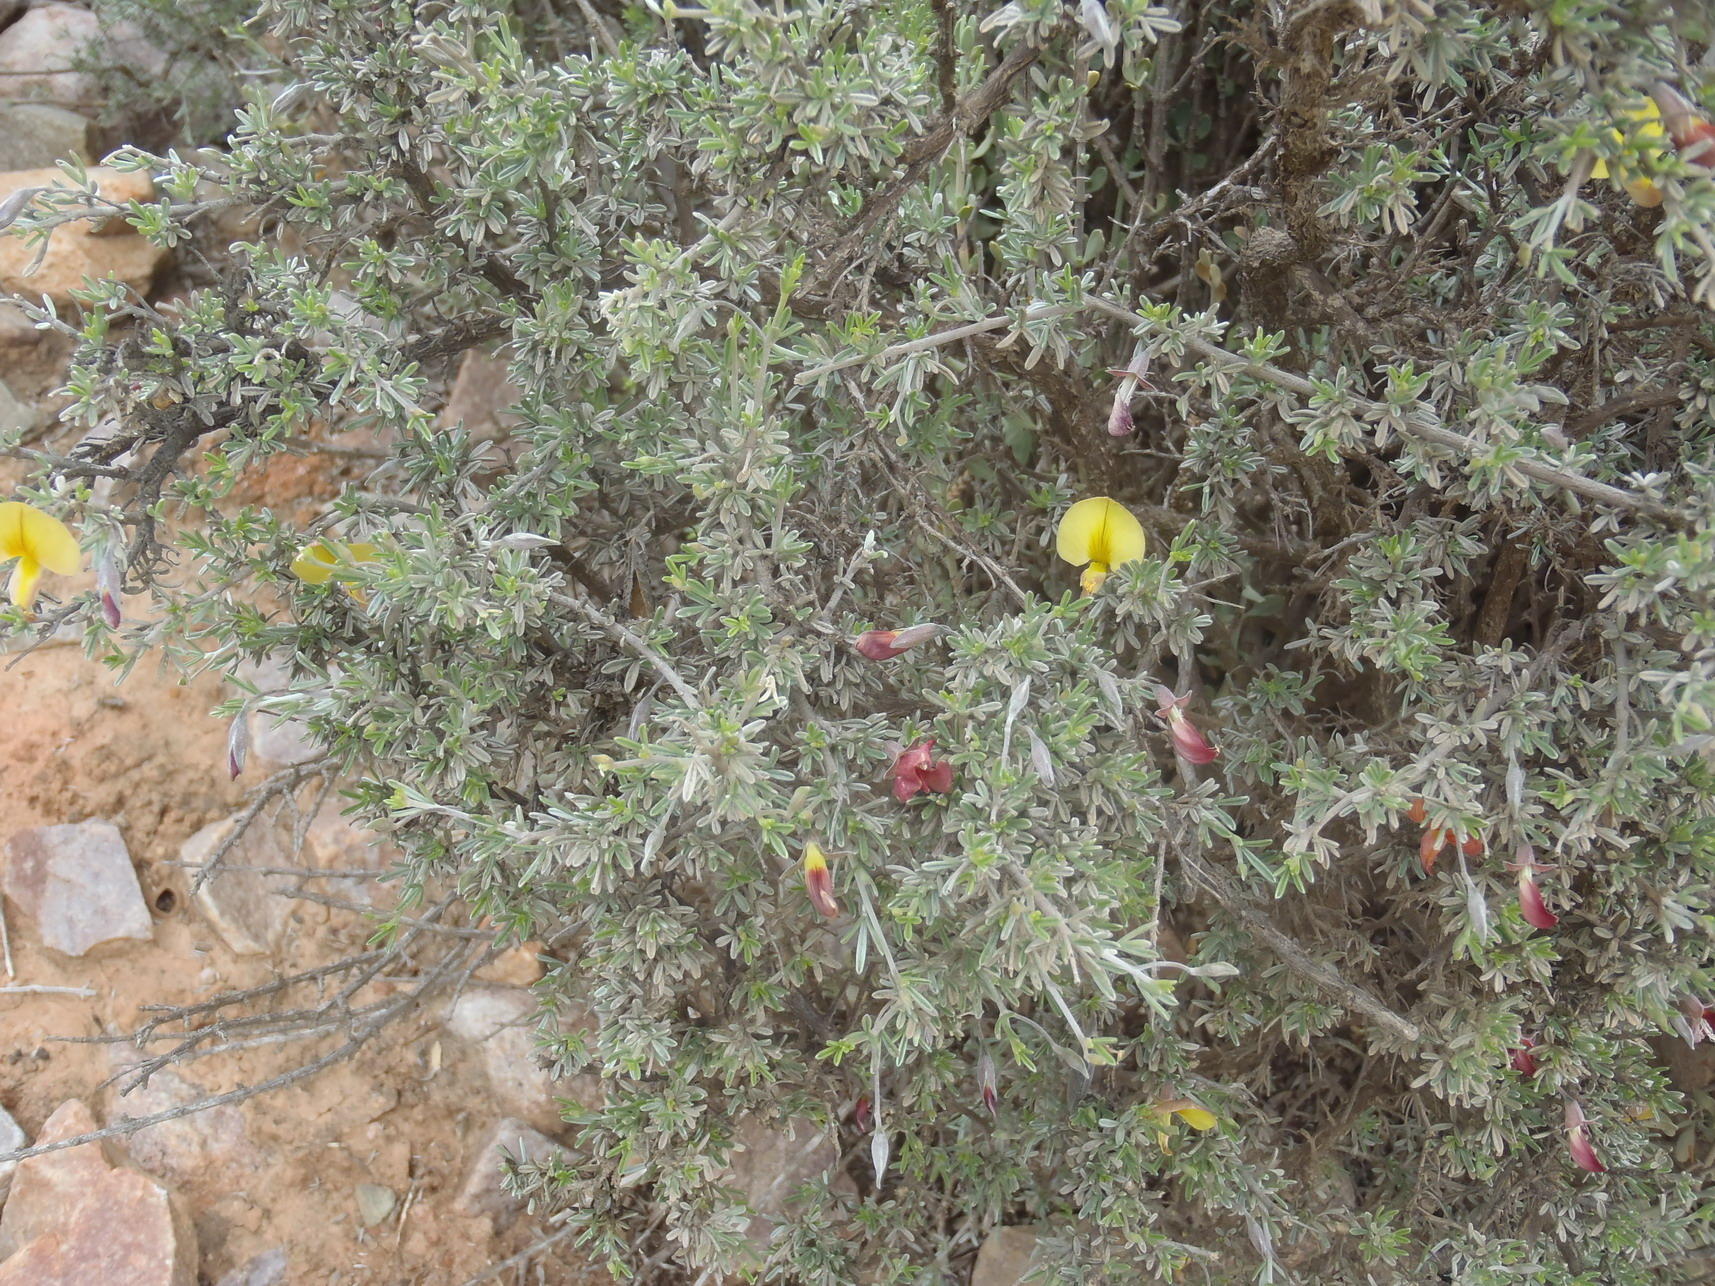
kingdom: Plantae
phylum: Tracheophyta
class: Magnoliopsida
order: Fabales
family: Fabaceae
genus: Lotononis
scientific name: Lotononis dahlgrenii
